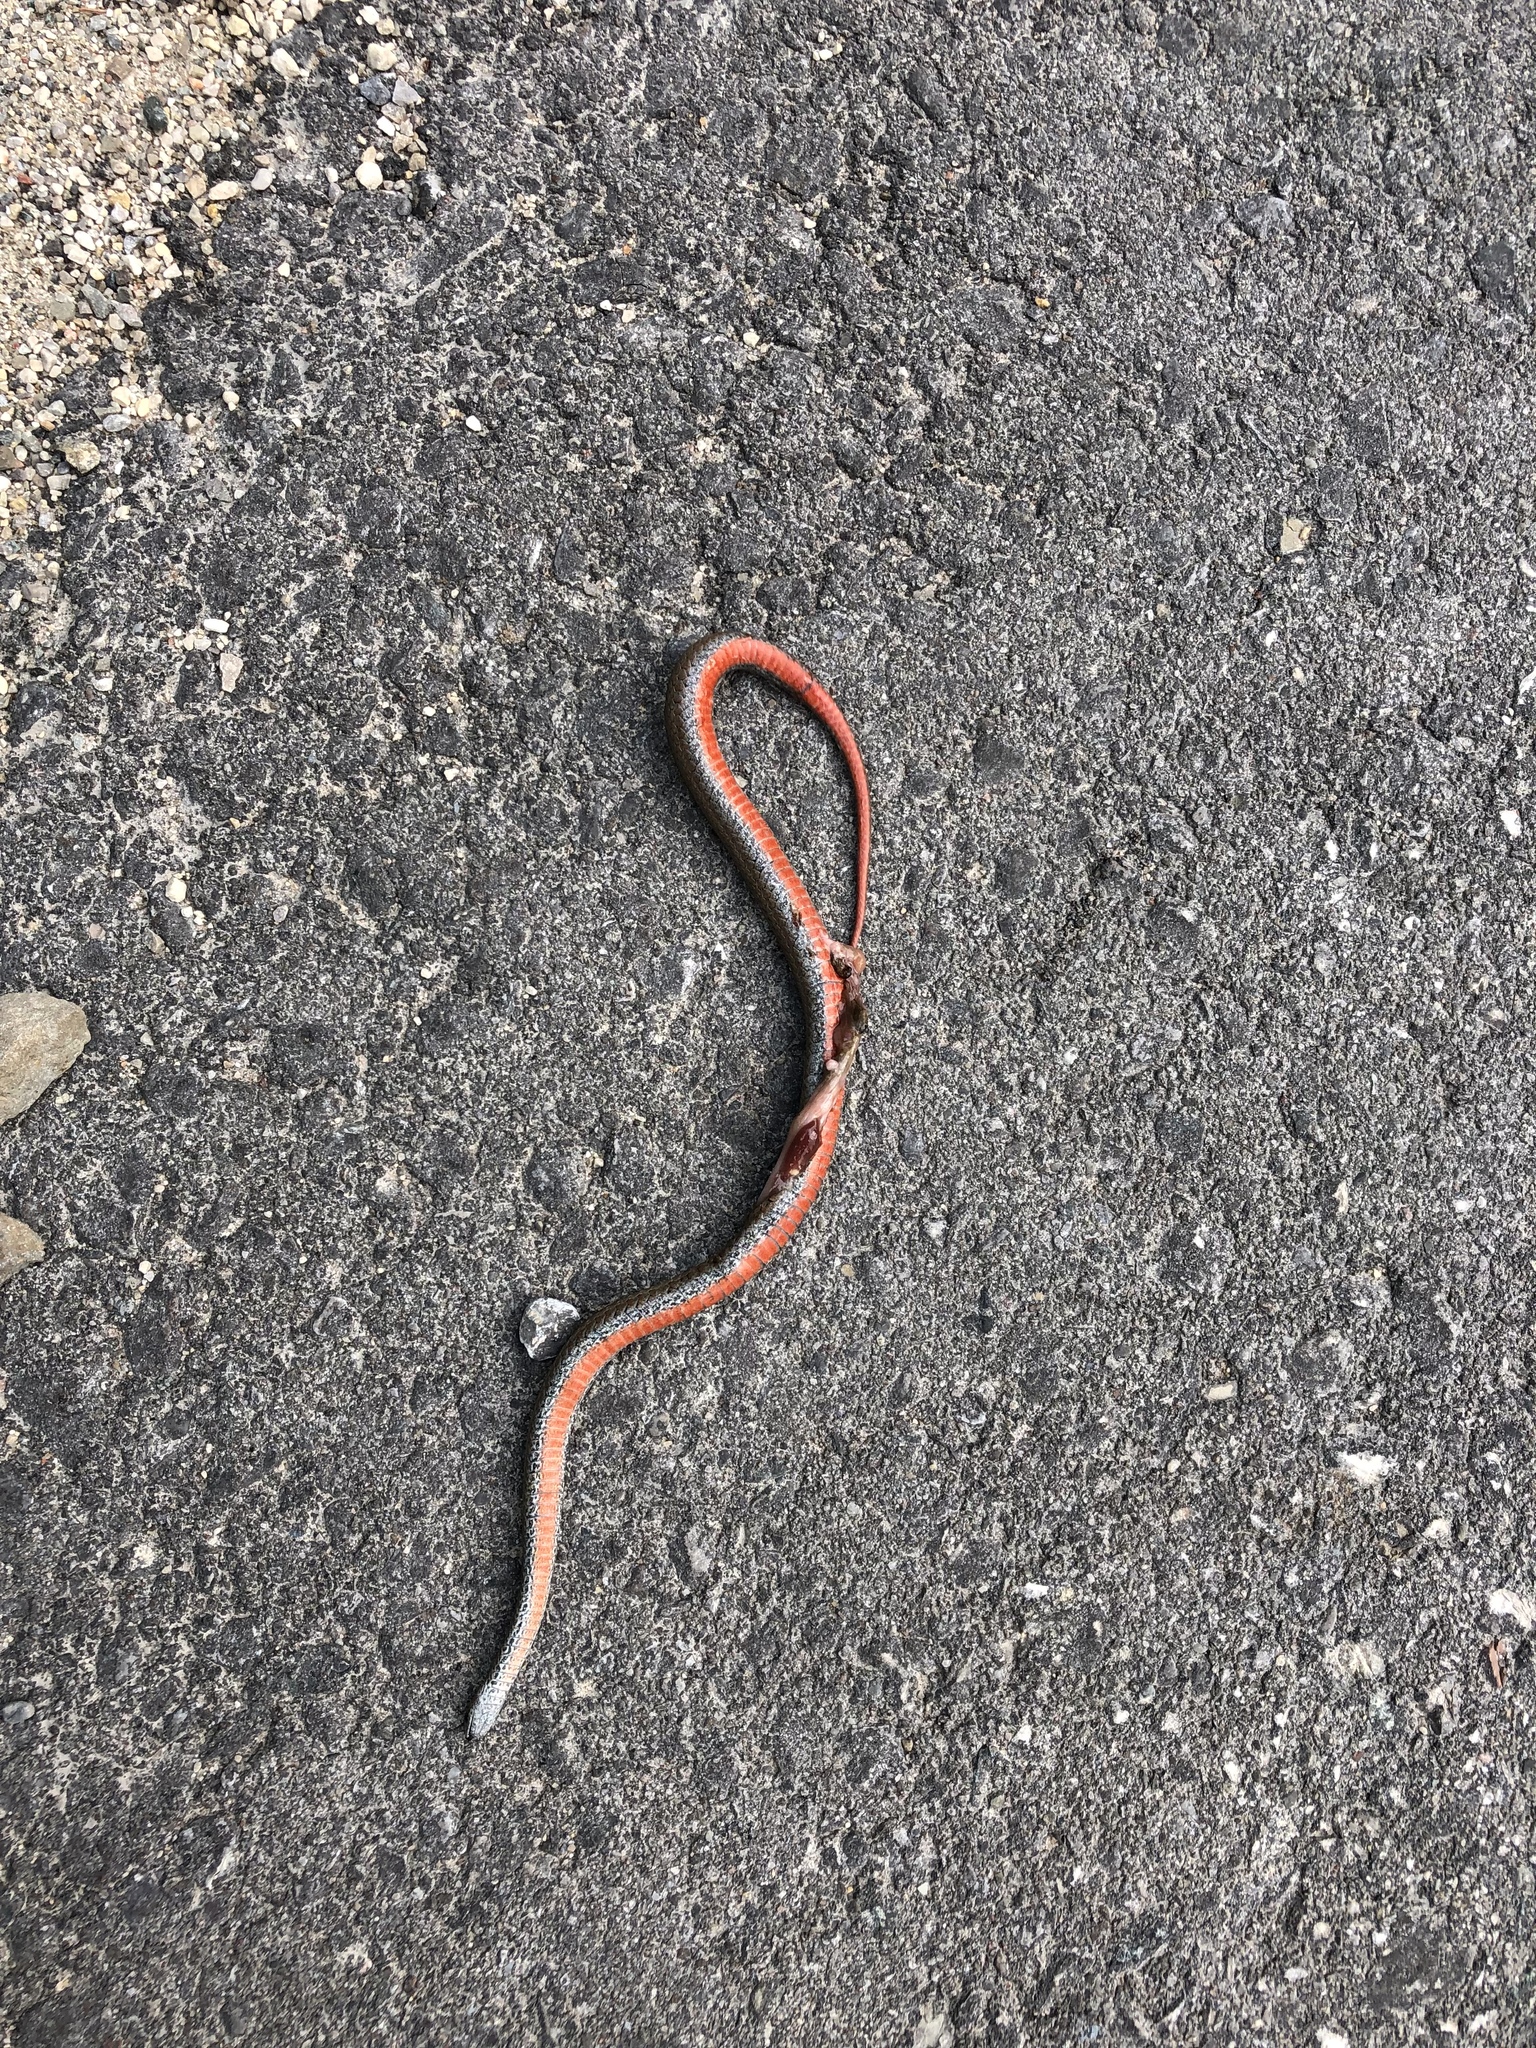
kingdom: Animalia
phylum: Chordata
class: Squamata
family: Colubridae
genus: Storeria
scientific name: Storeria occipitomaculata
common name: Redbelly snake
